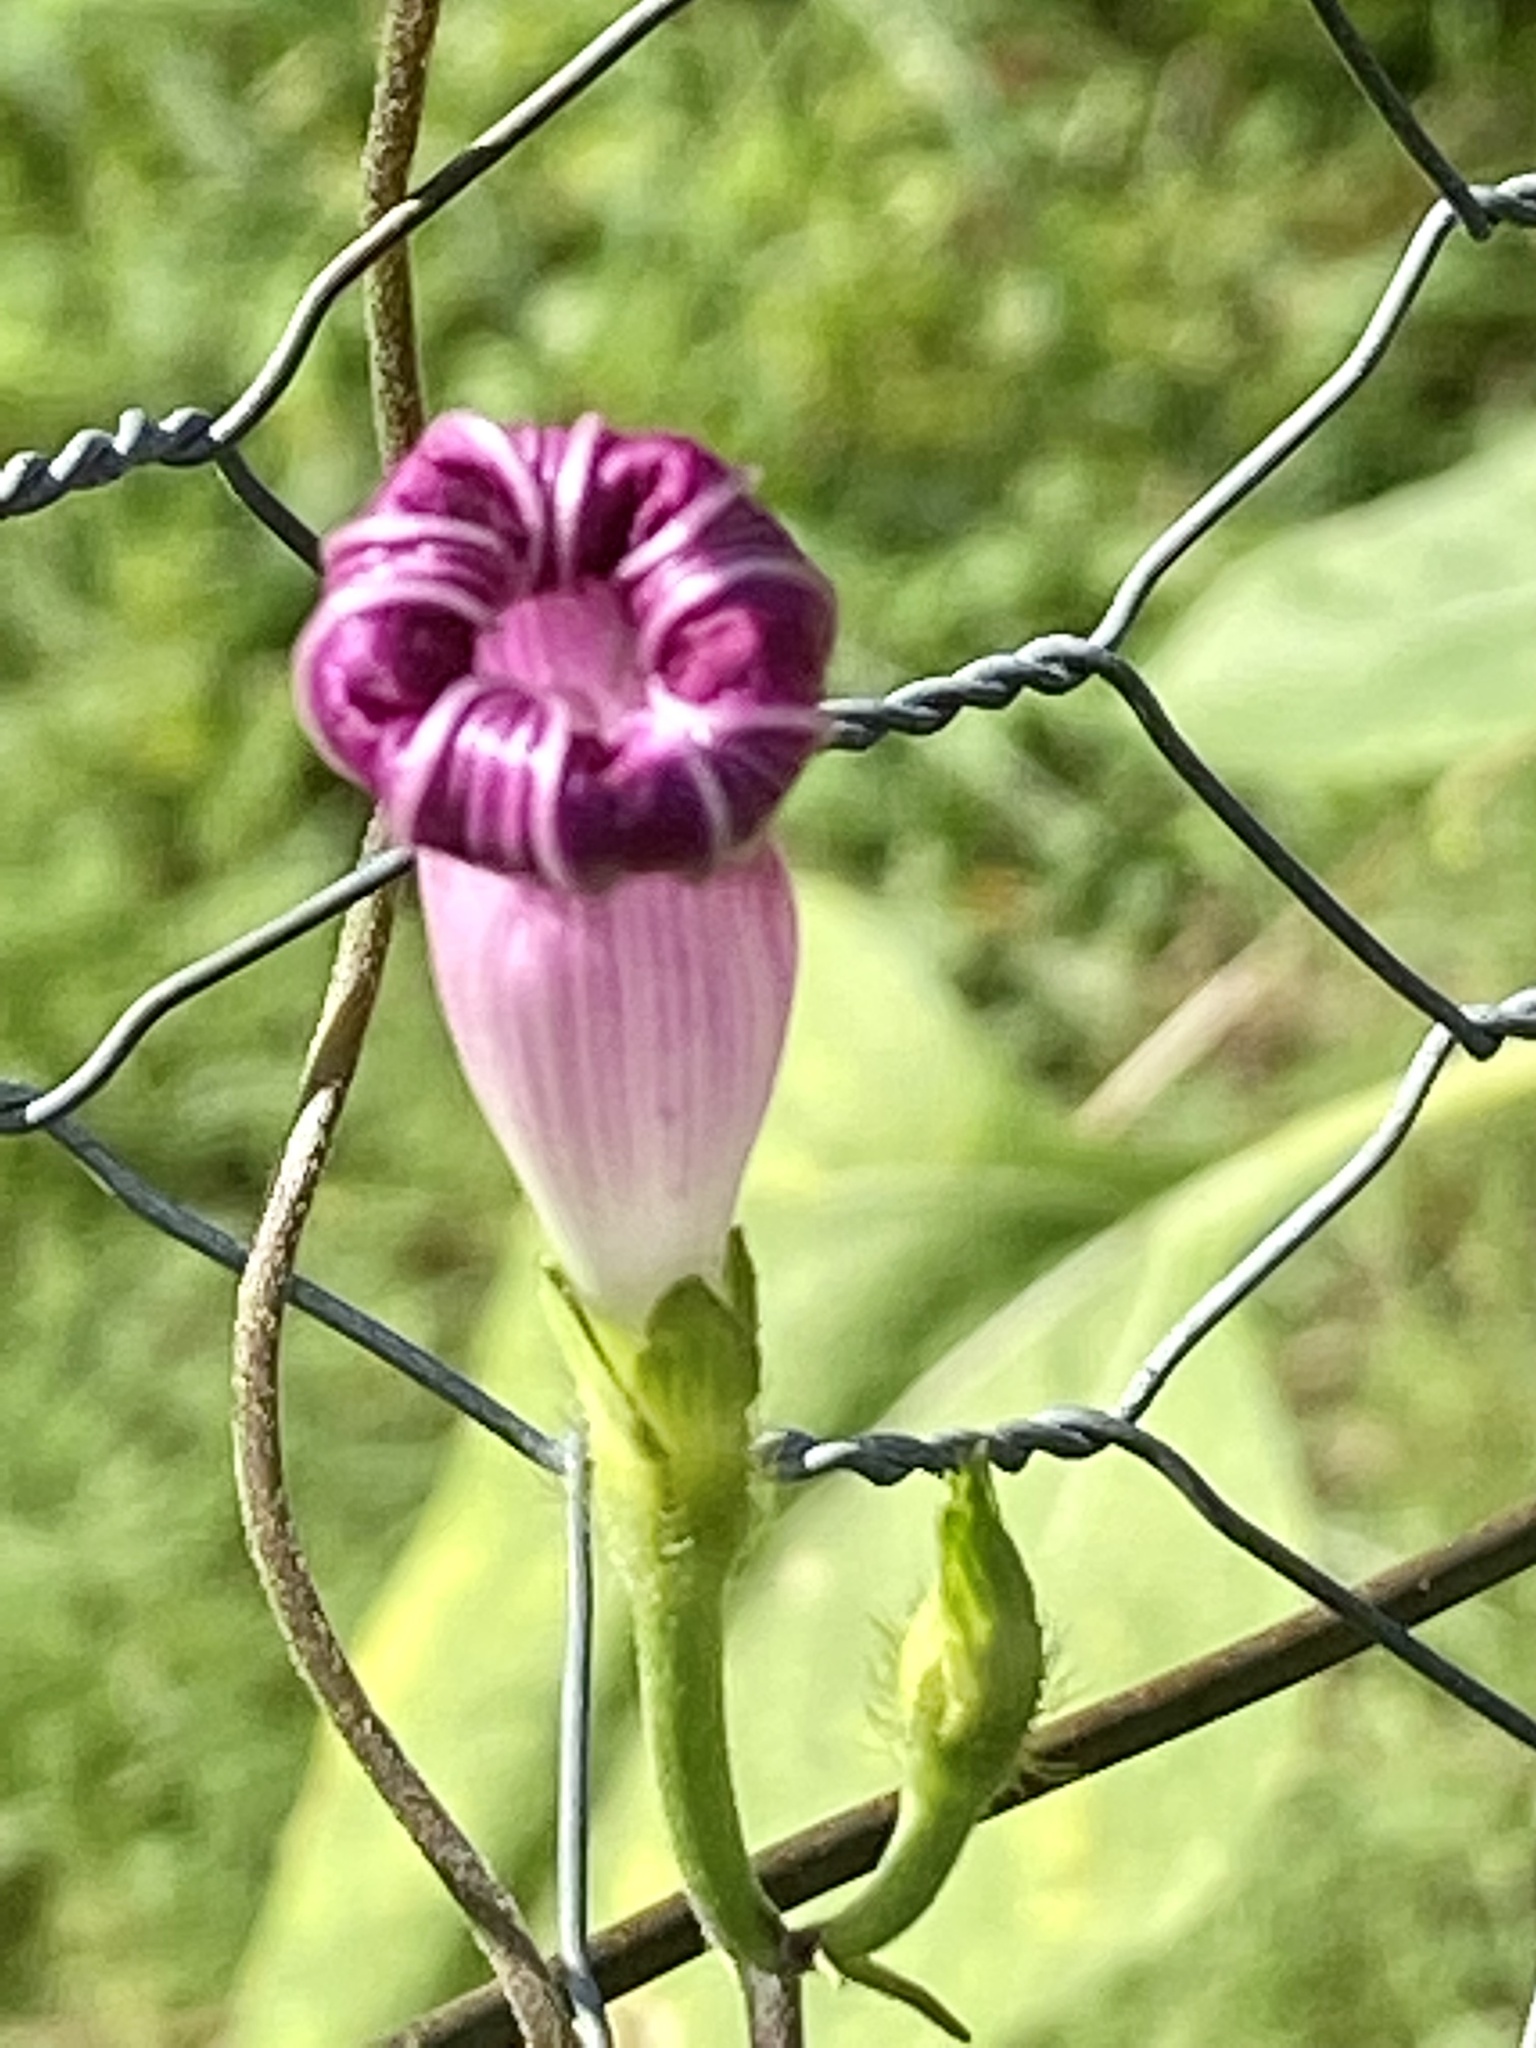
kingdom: Plantae
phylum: Tracheophyta
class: Magnoliopsida
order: Solanales
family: Convolvulaceae
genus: Ipomoea
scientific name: Ipomoea purpurea
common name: Common morning-glory
